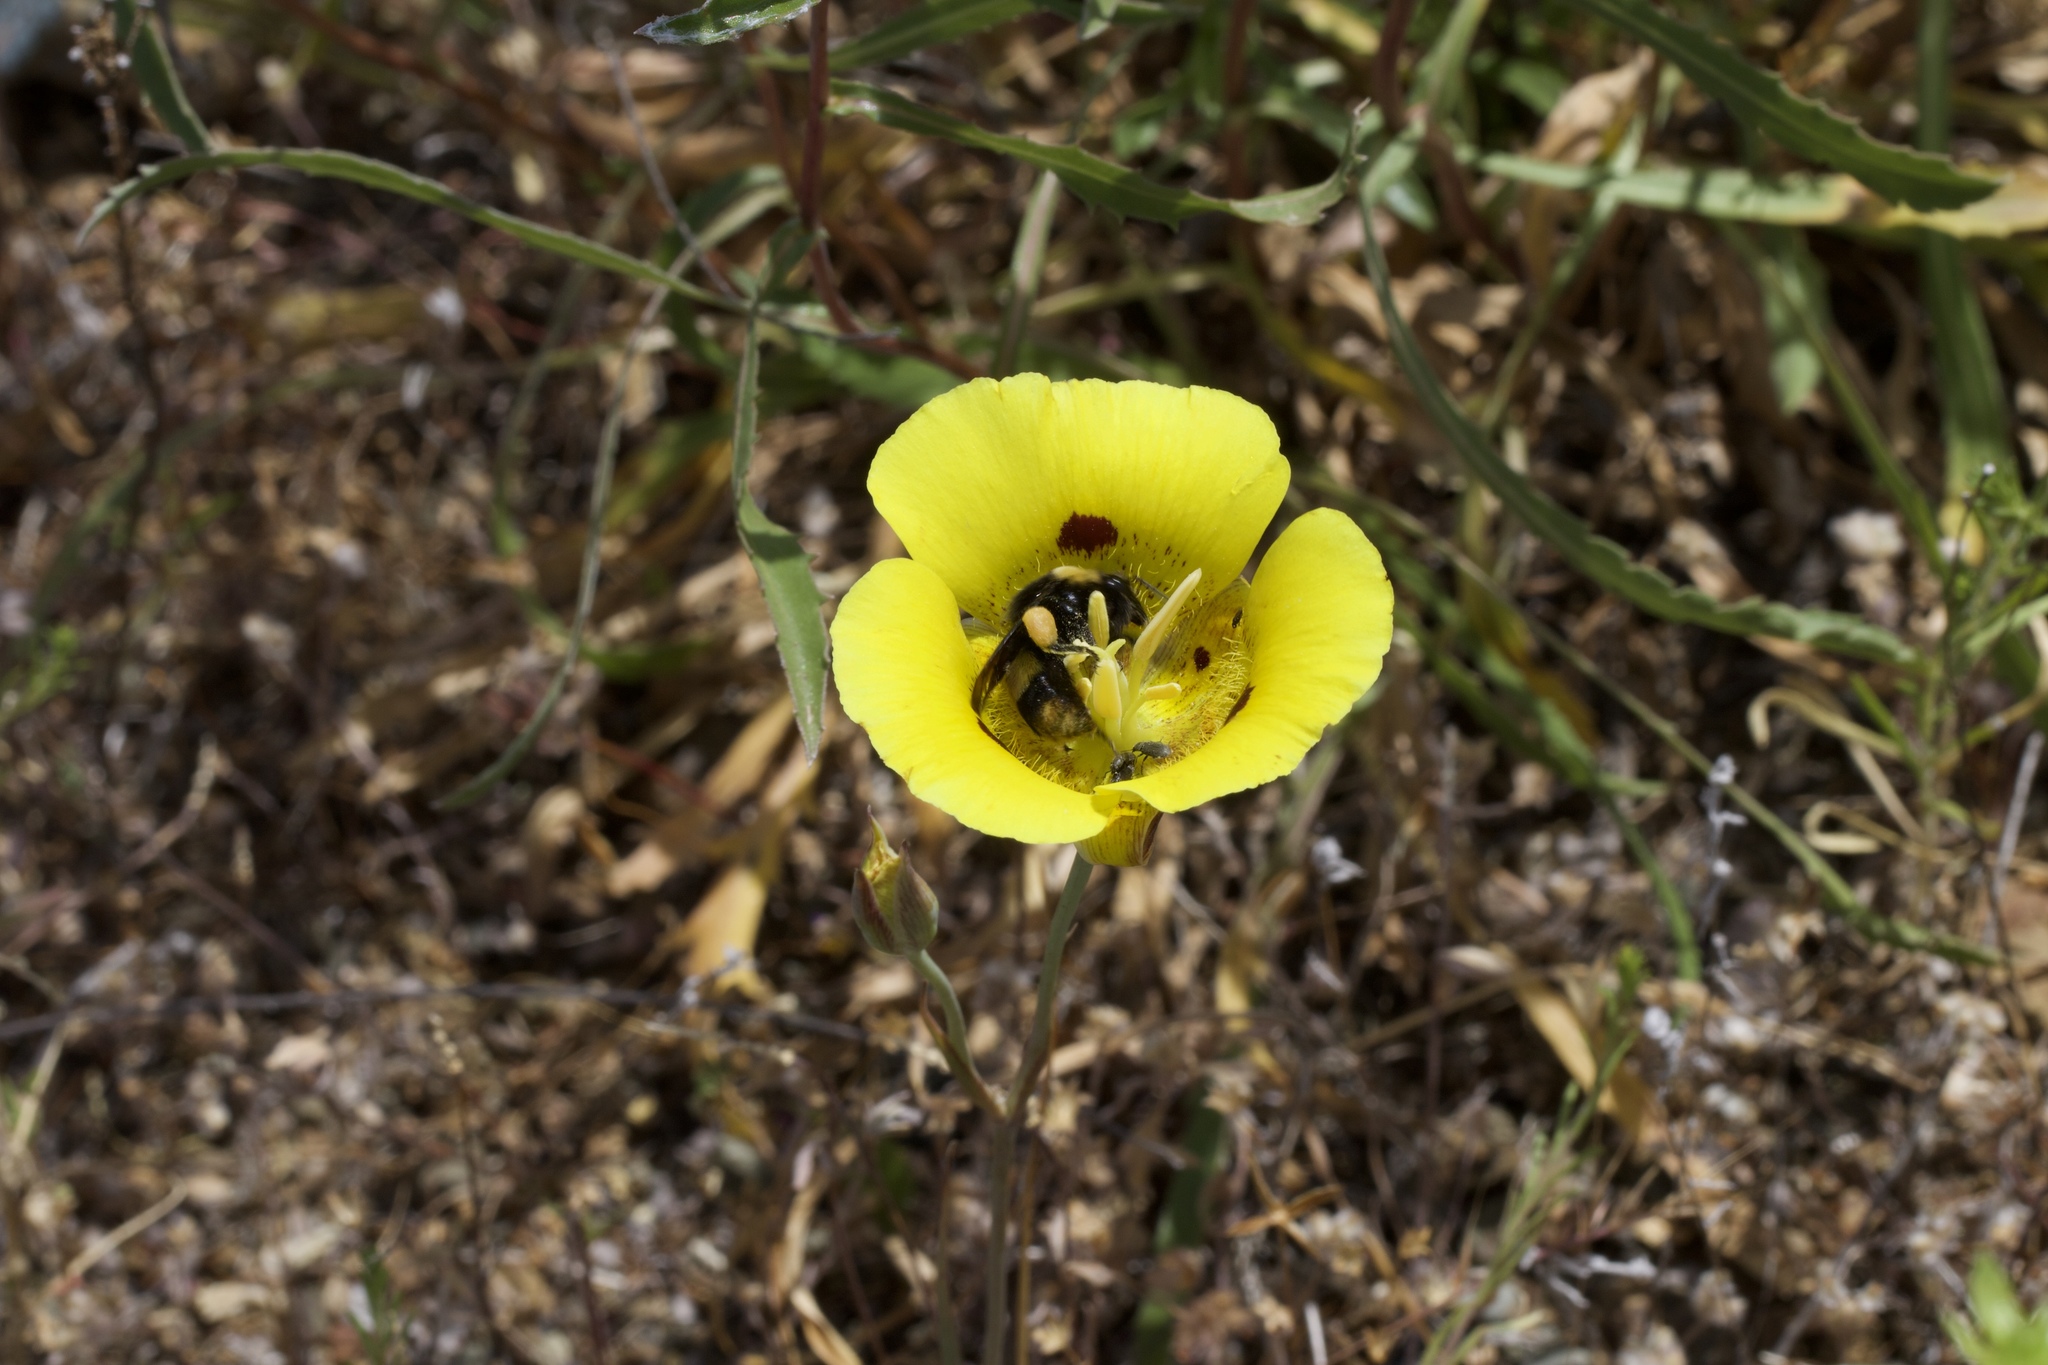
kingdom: Animalia
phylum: Arthropoda
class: Insecta
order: Hymenoptera
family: Apidae
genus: Bombus
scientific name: Bombus crotchii
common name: Crotch bumble bee
